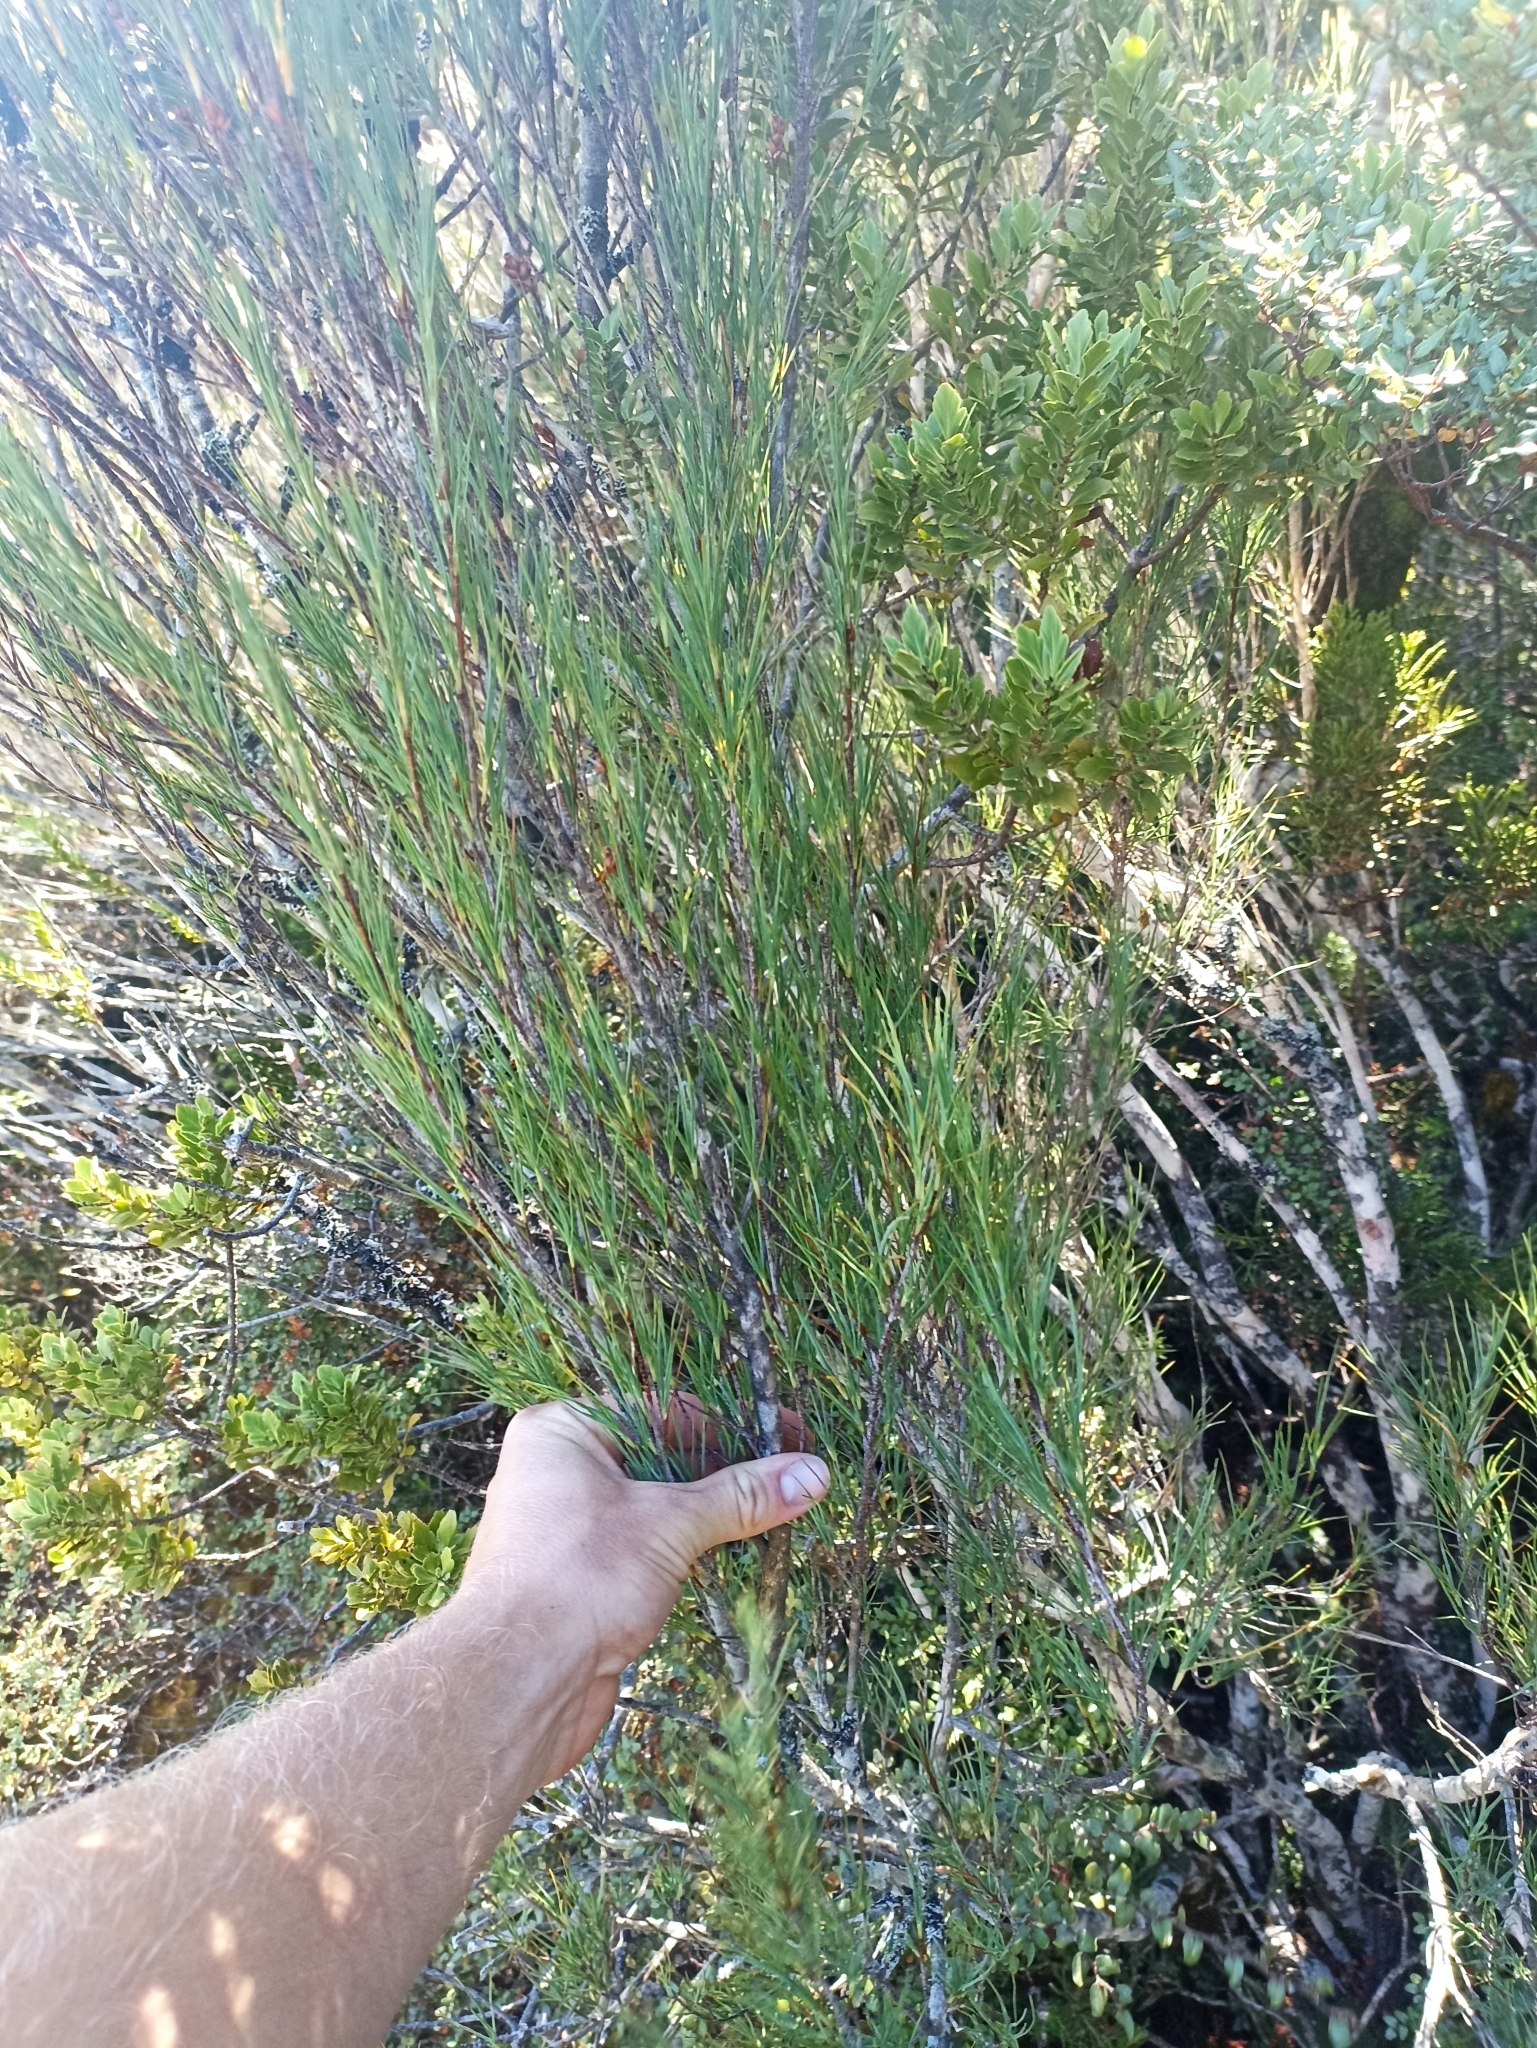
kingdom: Plantae
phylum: Tracheophyta
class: Magnoliopsida
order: Ericales
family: Ericaceae
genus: Dracophyllum
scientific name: Dracophyllum filifolium
